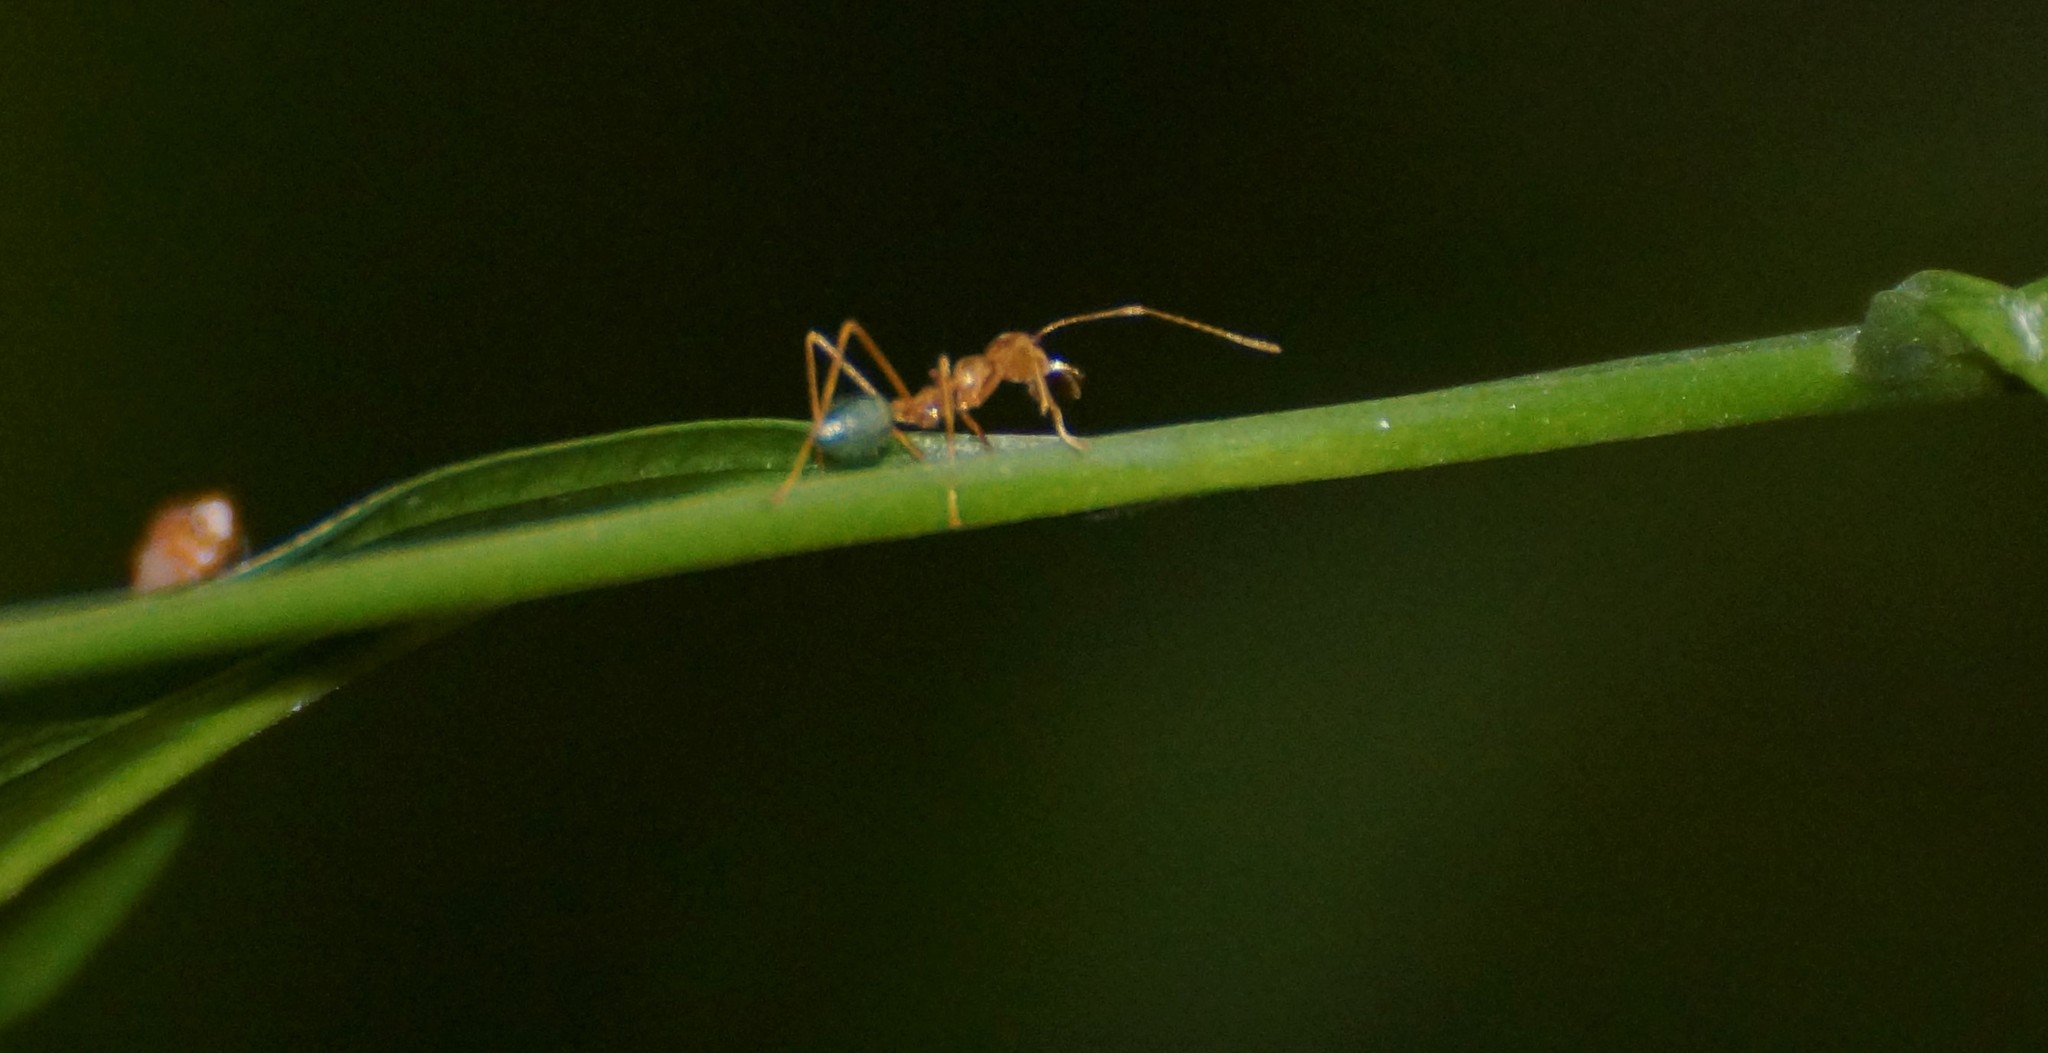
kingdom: Animalia
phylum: Arthropoda
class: Insecta
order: Hymenoptera
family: Formicidae
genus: Oecophylla
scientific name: Oecophylla smaragdina
